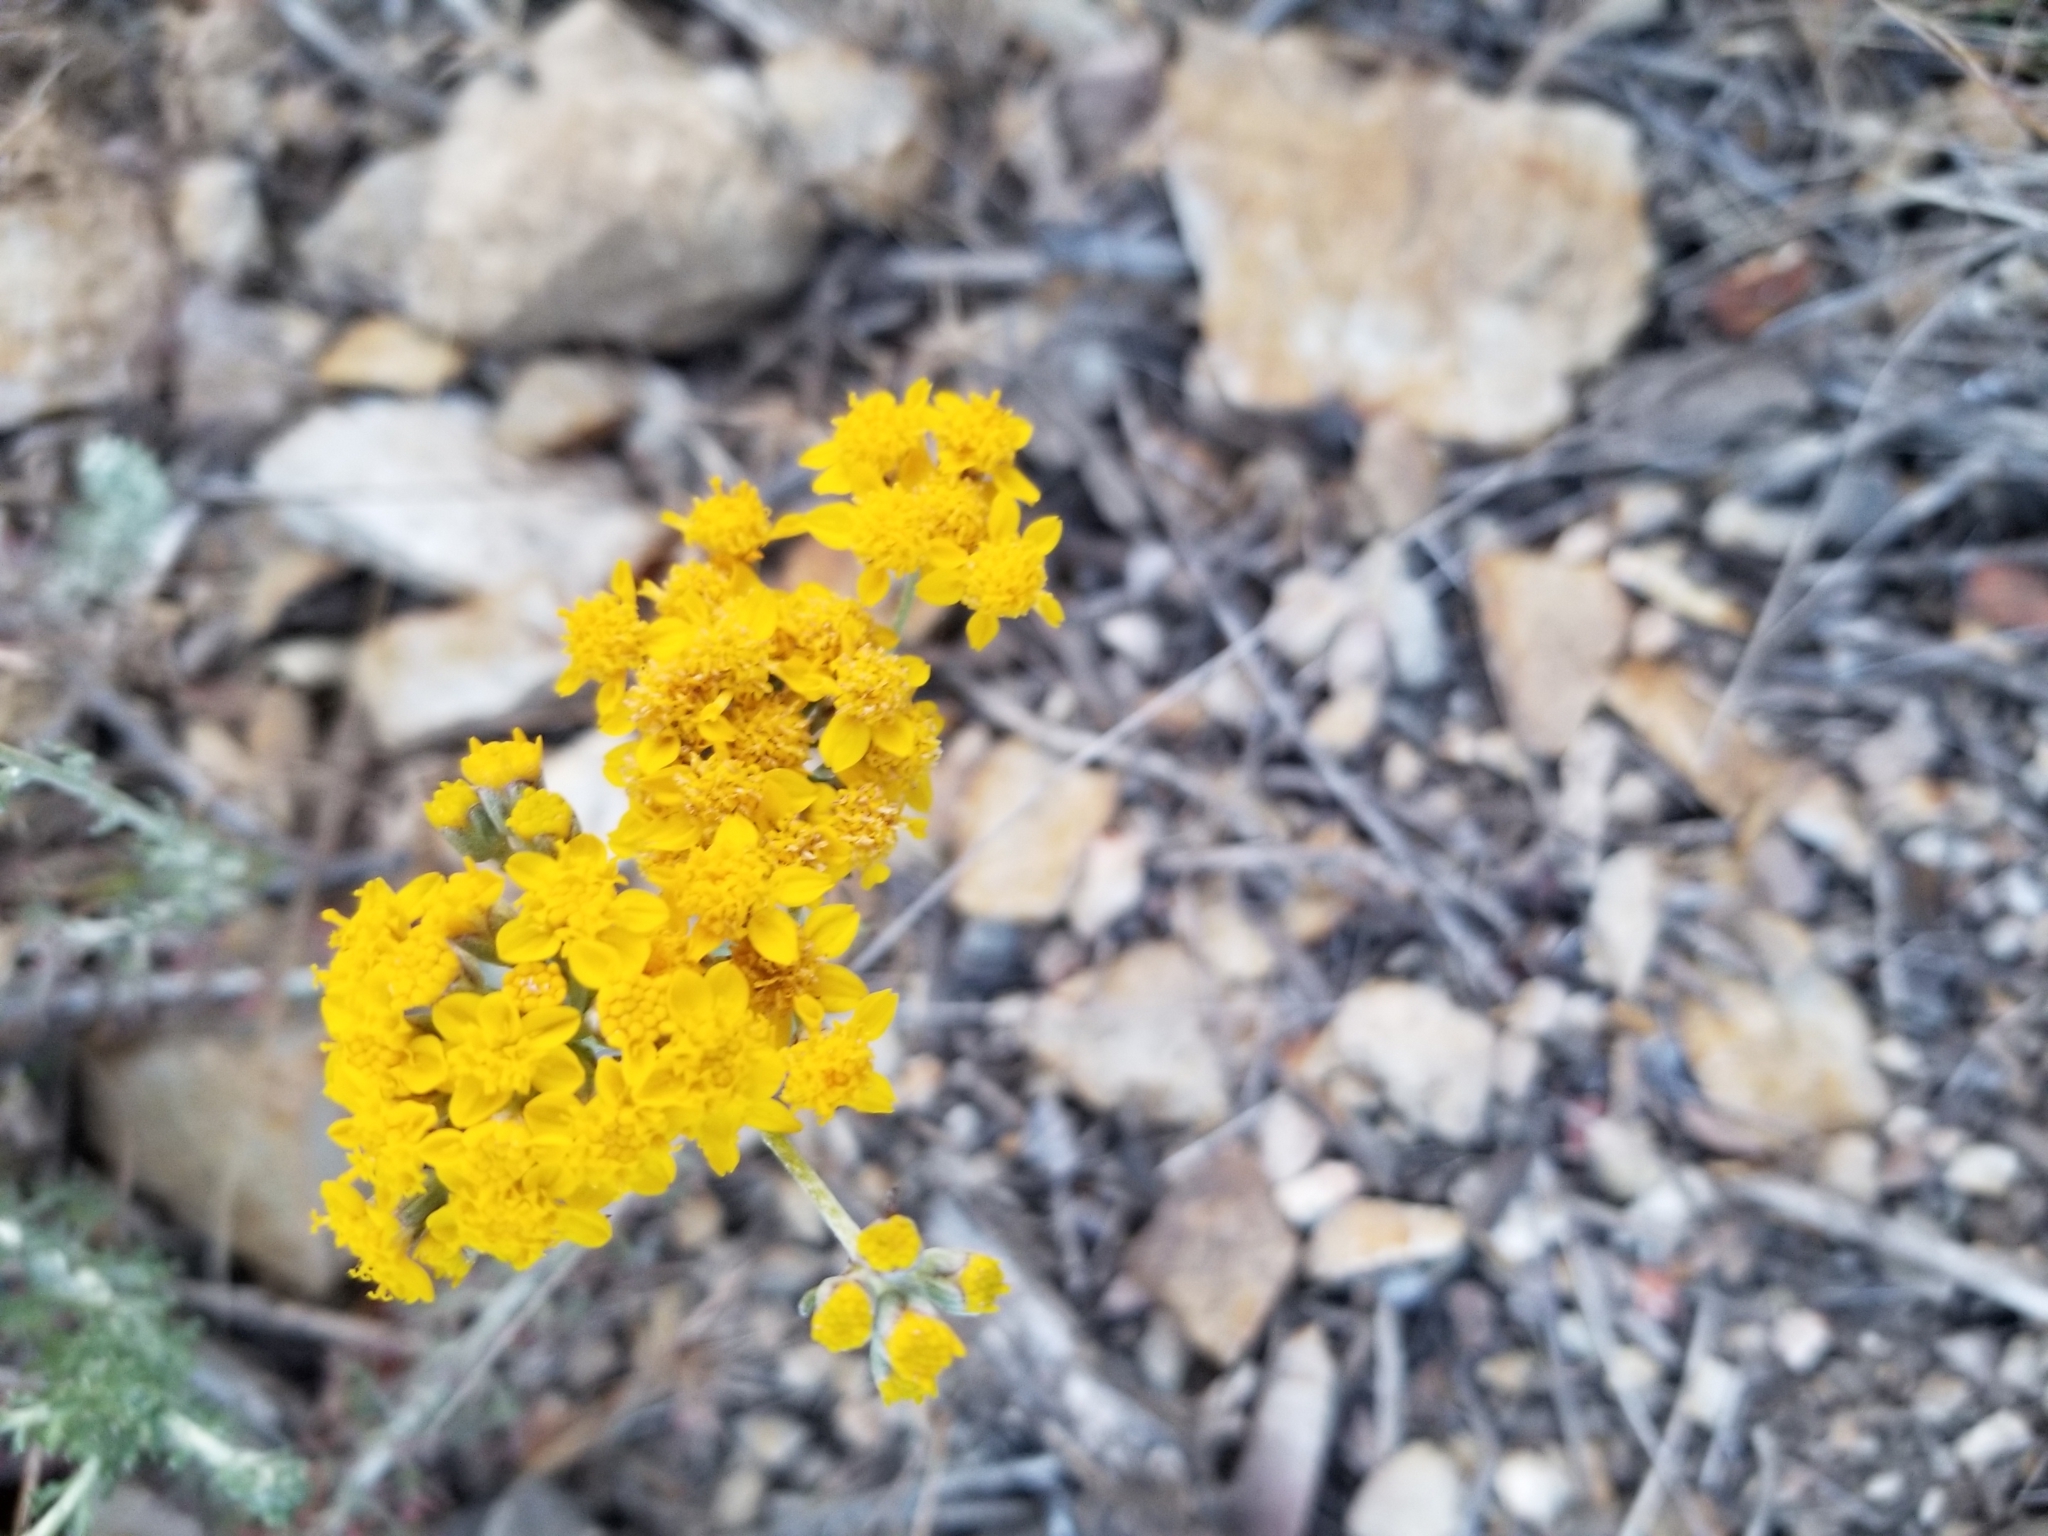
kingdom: Plantae
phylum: Tracheophyta
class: Magnoliopsida
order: Asterales
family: Asteraceae
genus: Eriophyllum
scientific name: Eriophyllum confertiflorum
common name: Golden-yarrow
